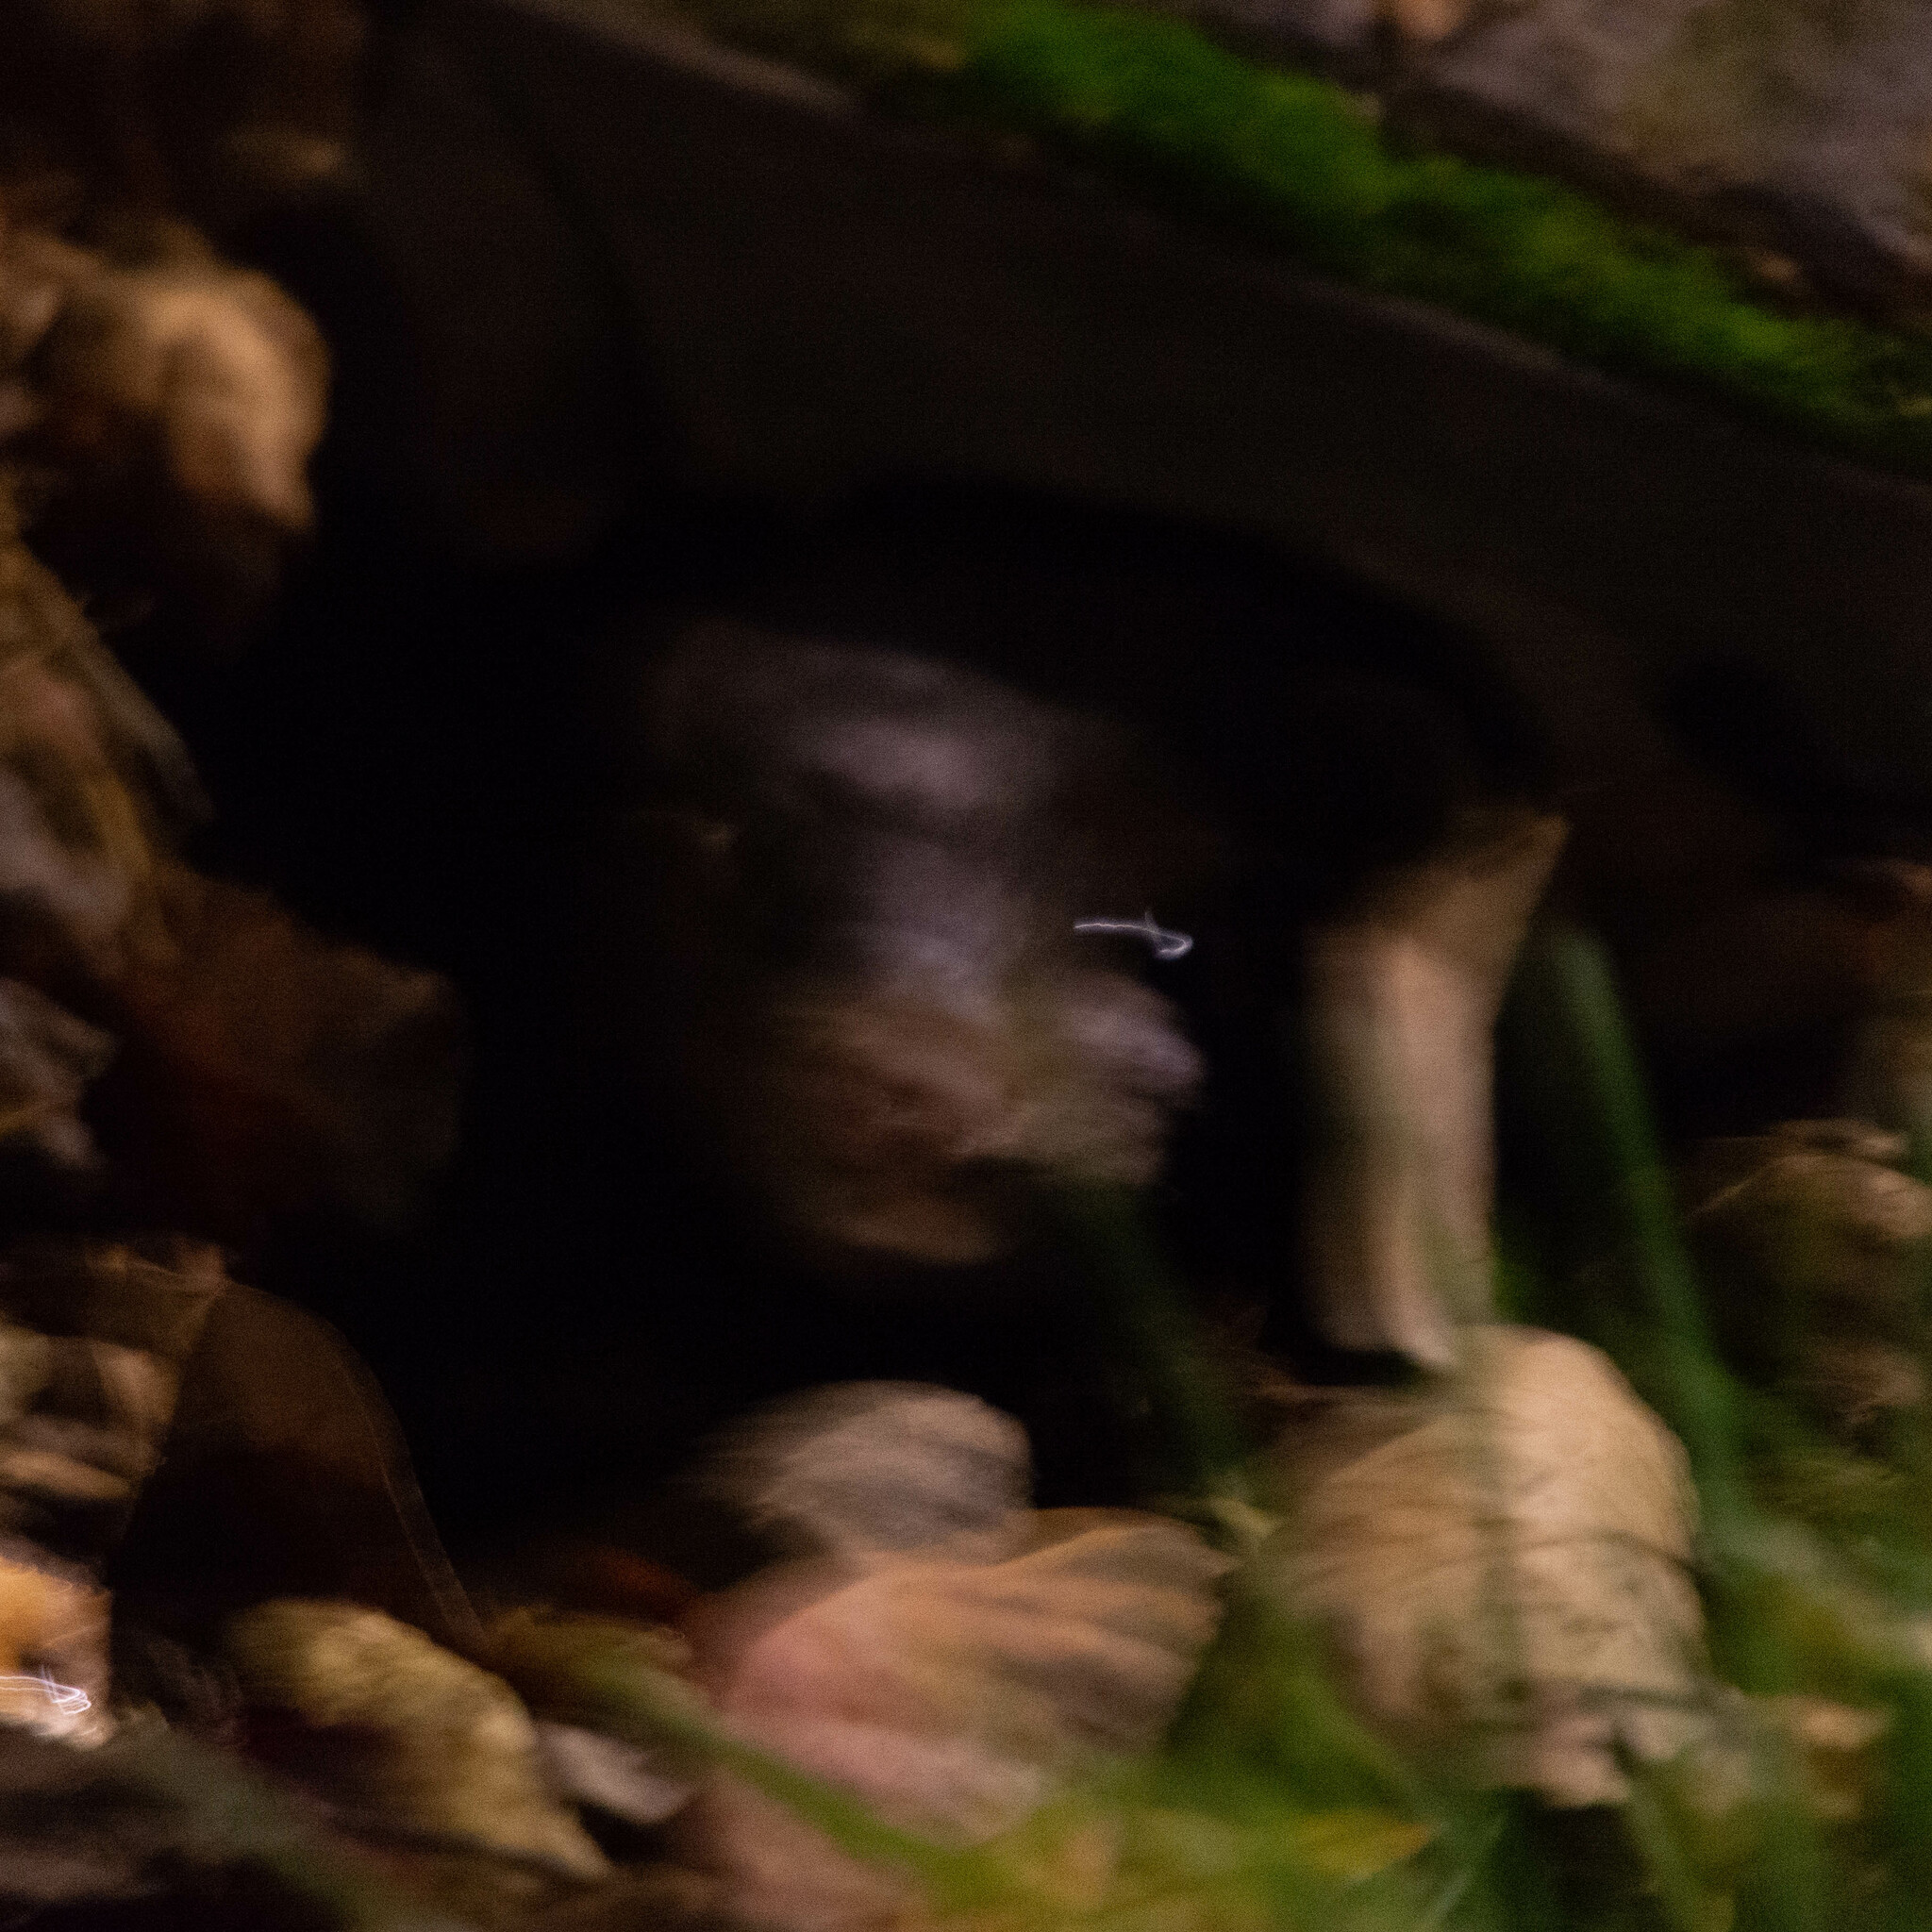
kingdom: Animalia
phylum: Chordata
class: Mammalia
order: Carnivora
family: Mustelidae
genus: Mustela
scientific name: Mustela
